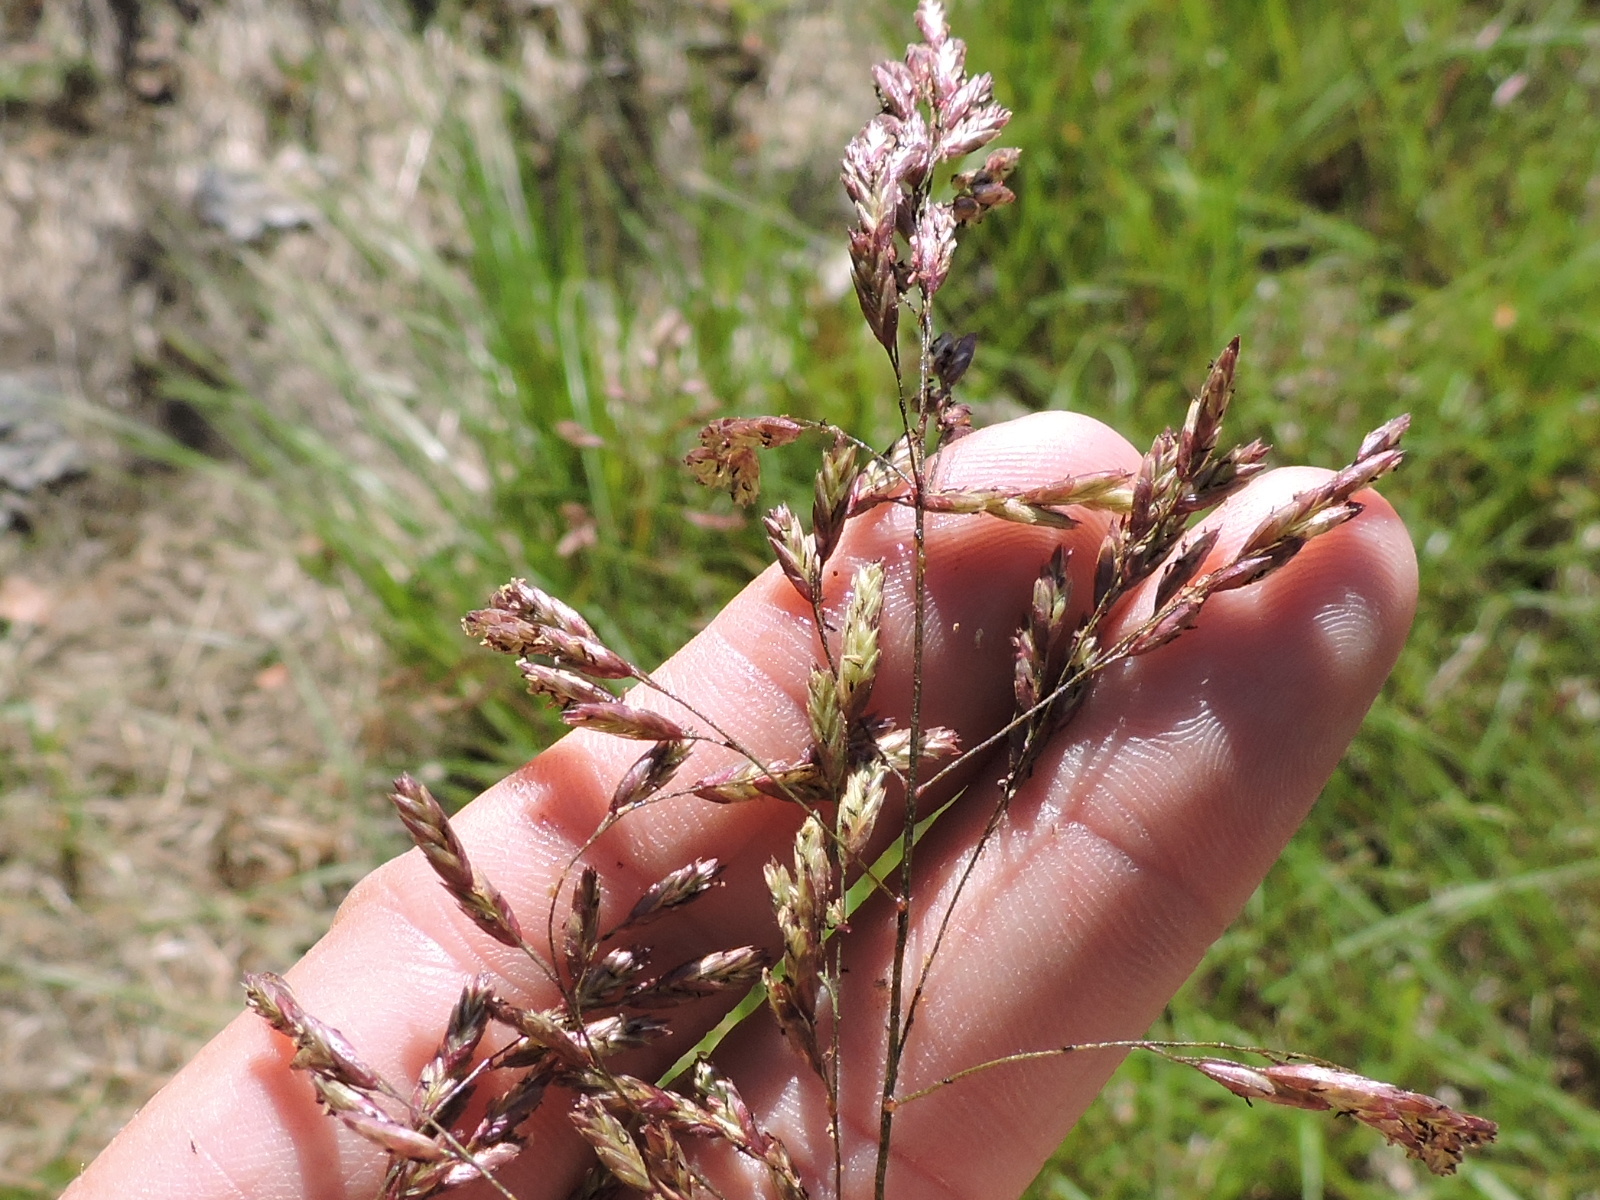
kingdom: Plantae
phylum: Tracheophyta
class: Liliopsida
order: Poales
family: Poaceae
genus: Tridens
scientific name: Tridens flavus
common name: Purpletop
